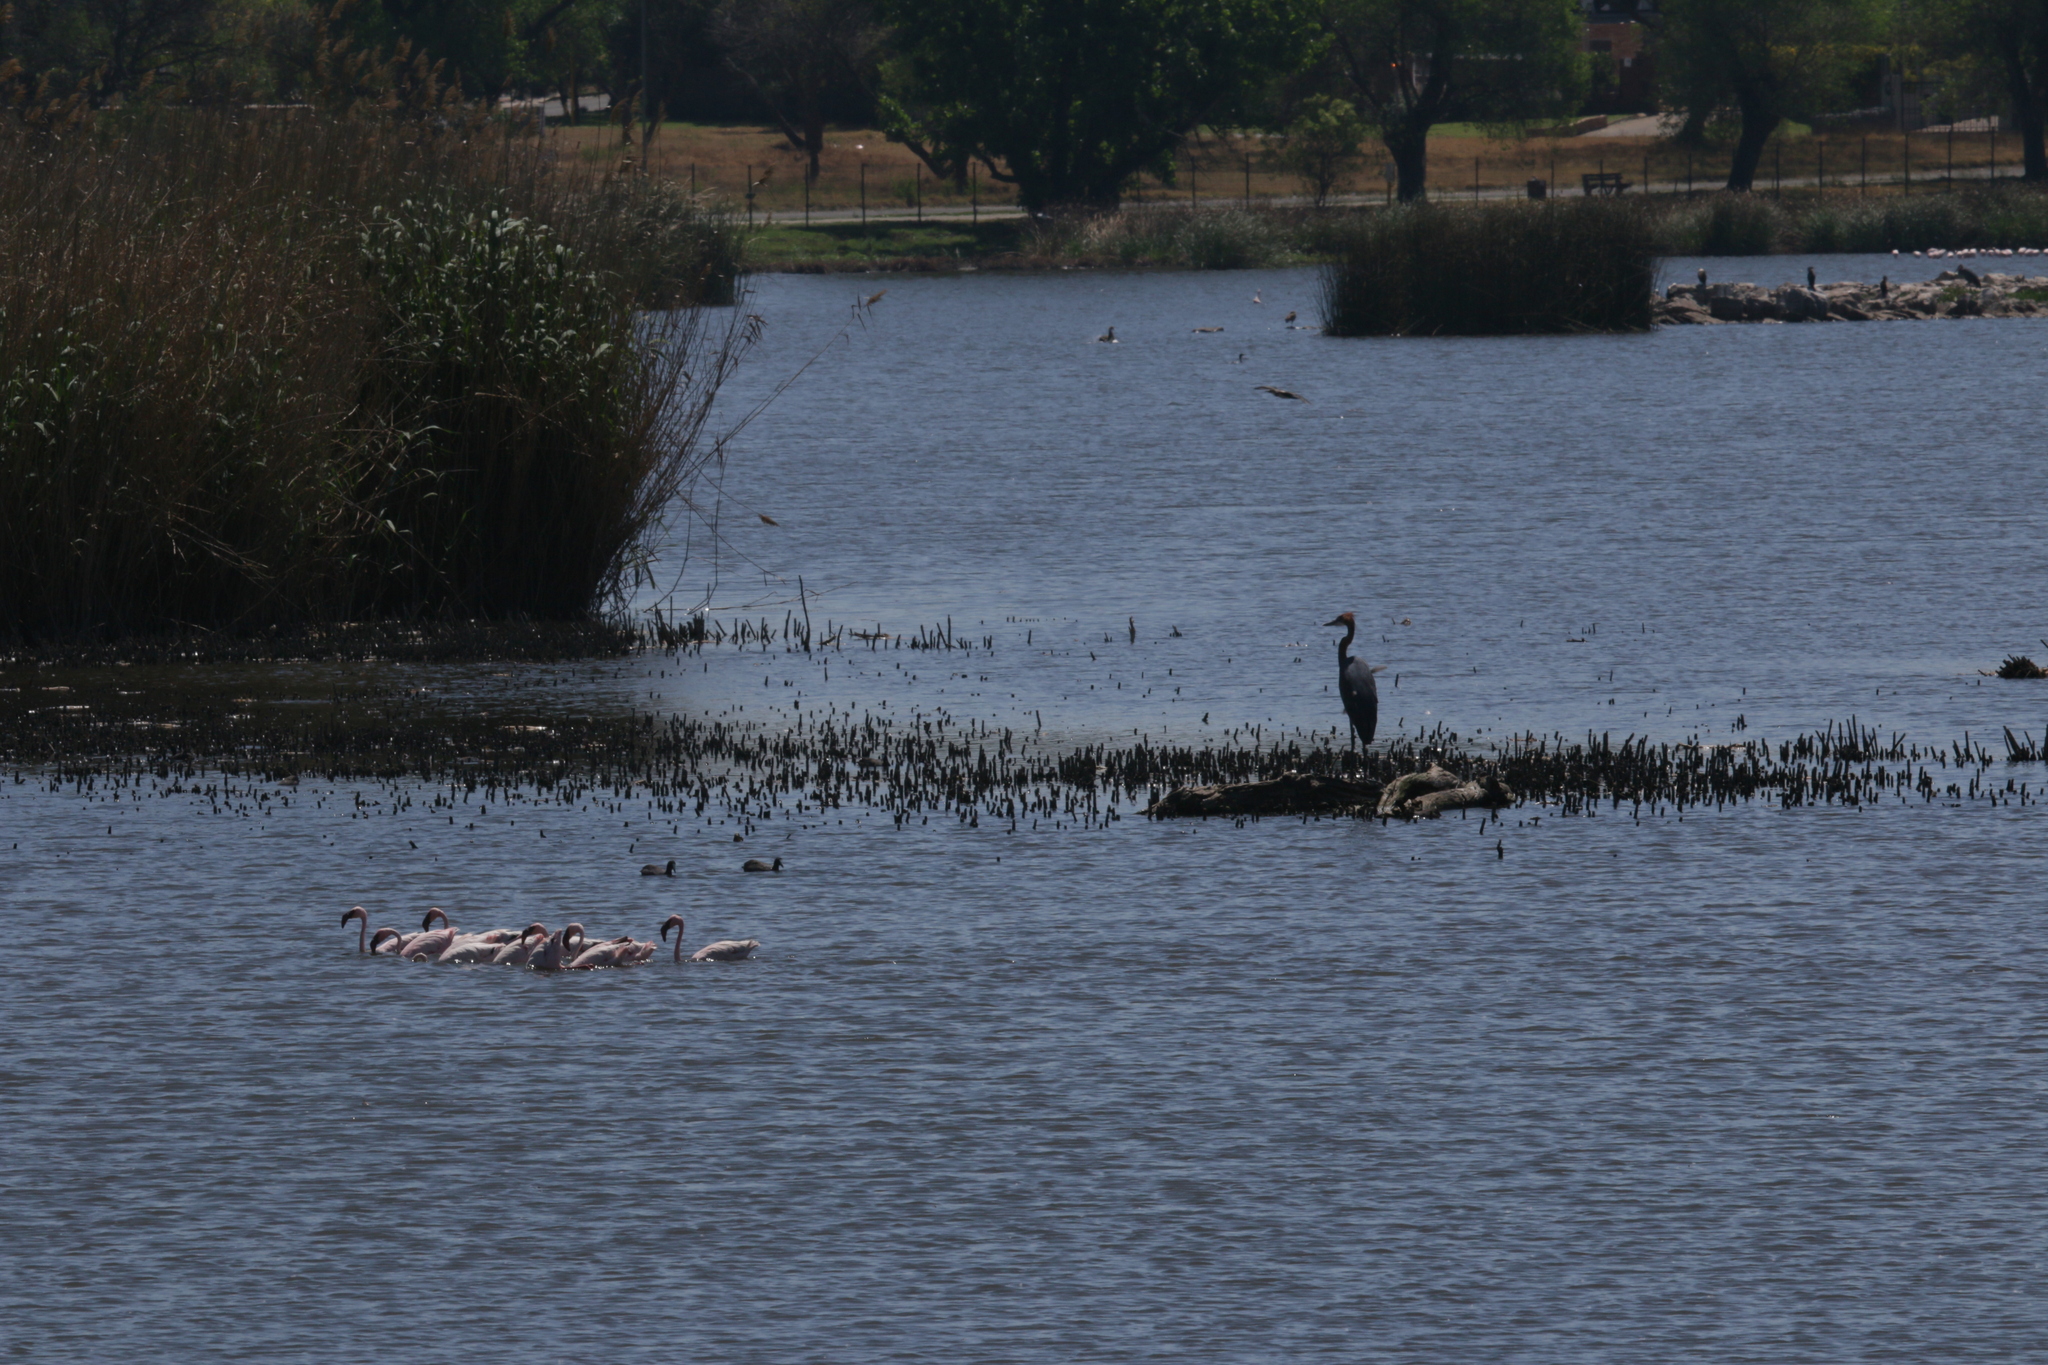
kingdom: Animalia
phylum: Chordata
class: Aves
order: Pelecaniformes
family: Ardeidae
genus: Ardea
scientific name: Ardea goliath
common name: Goliath heron
